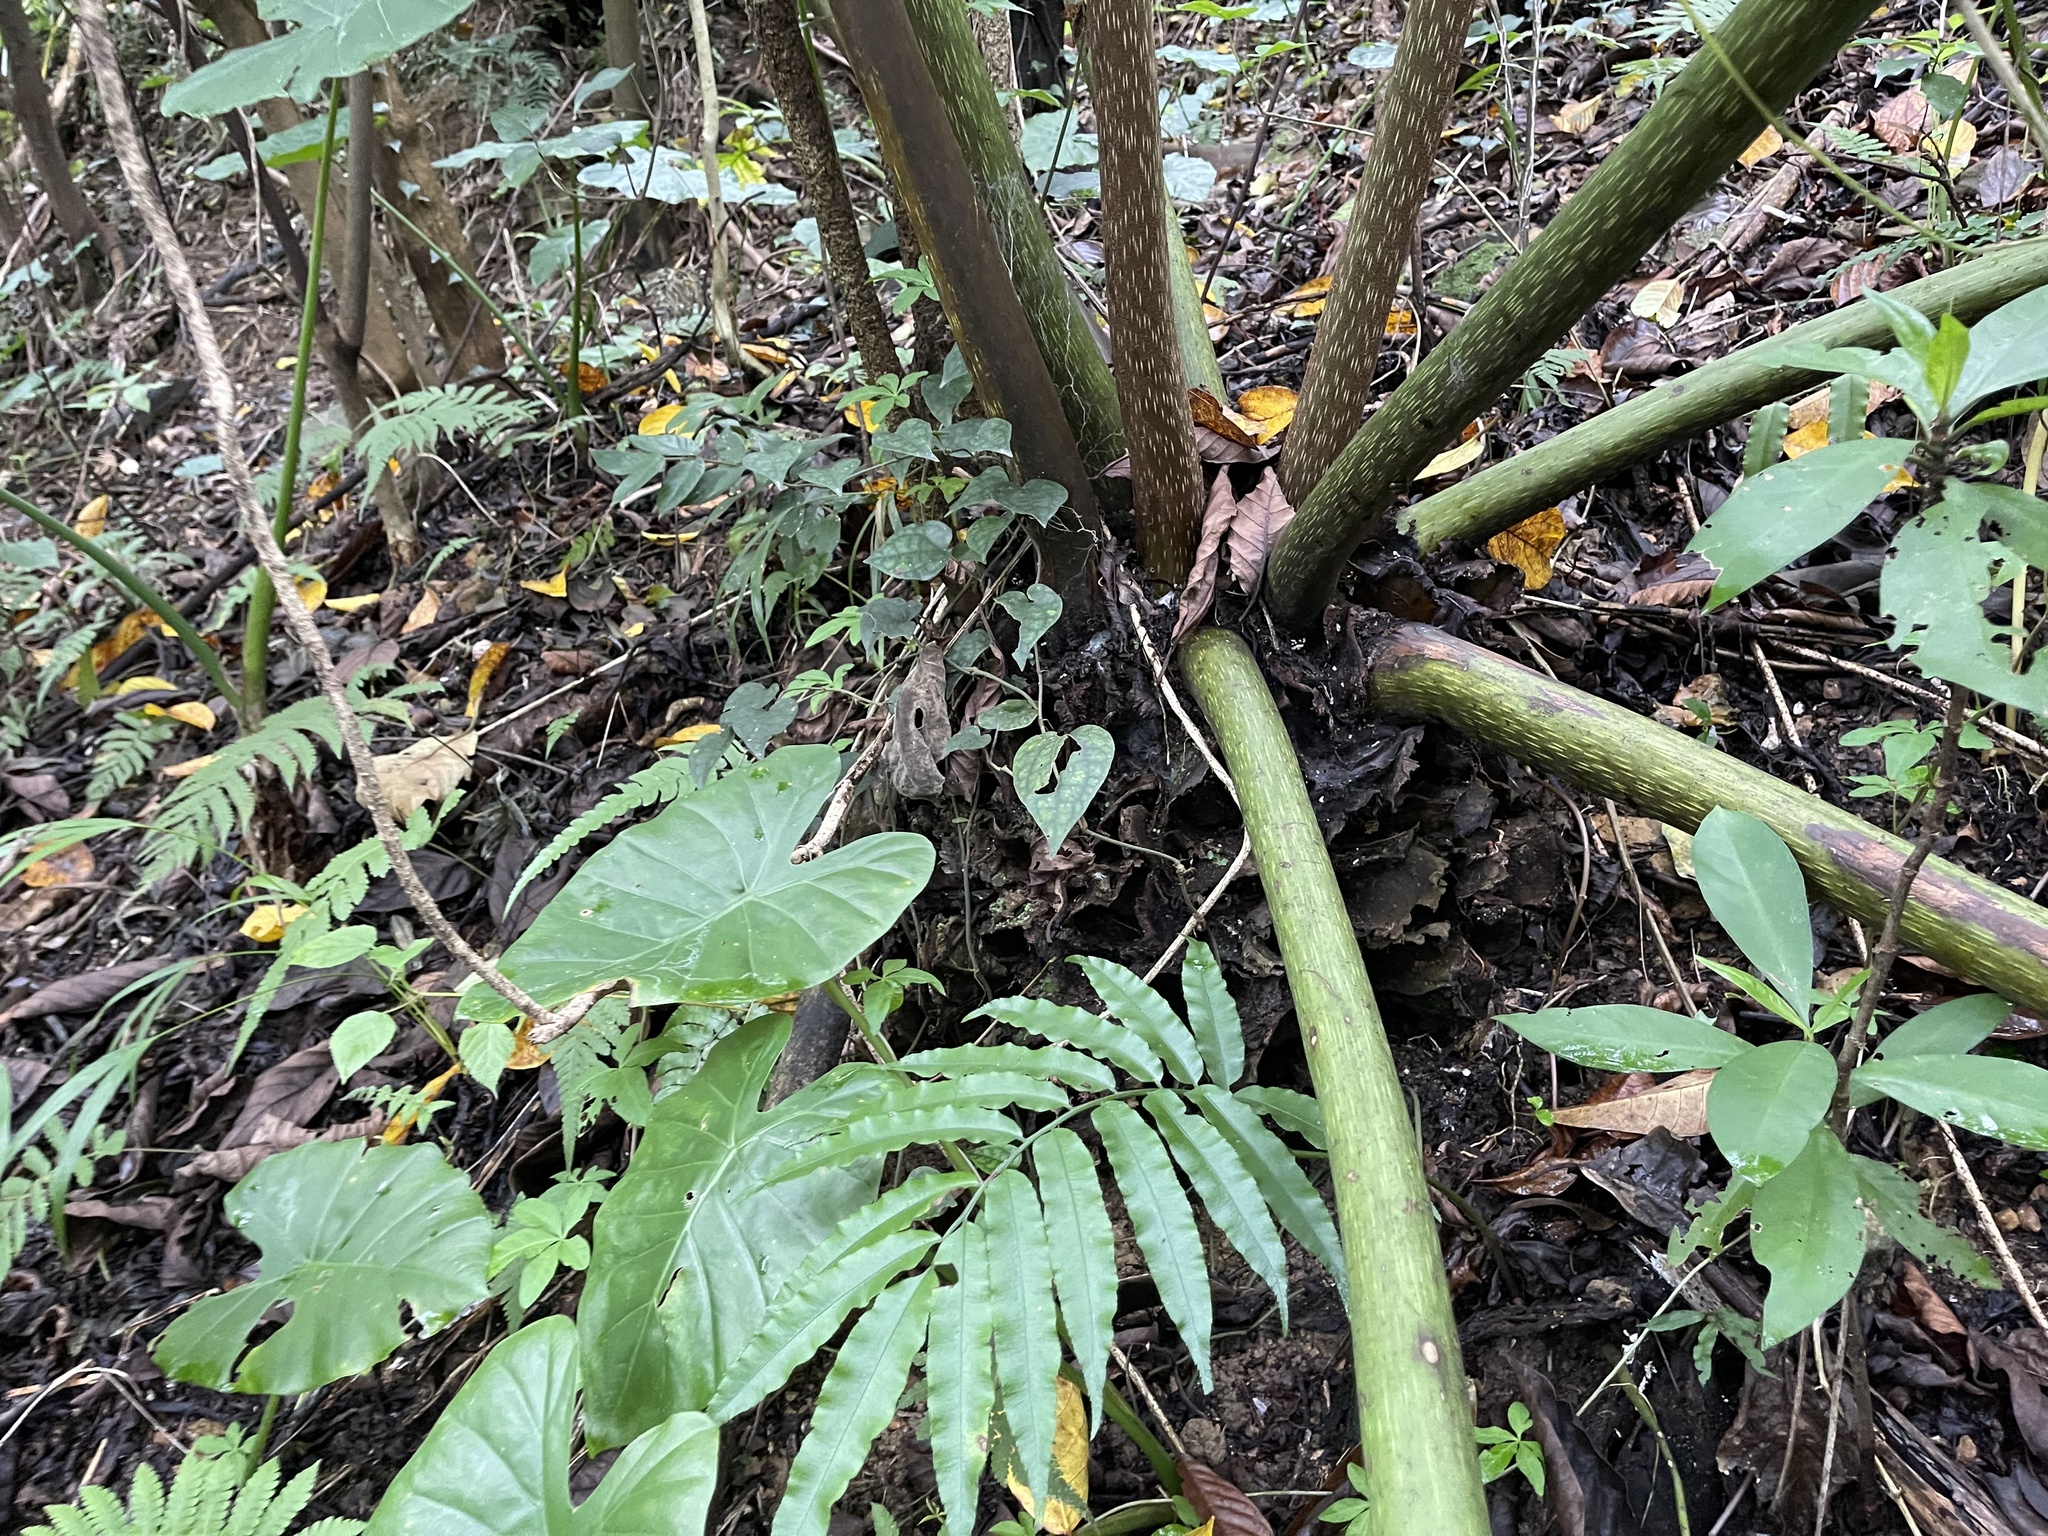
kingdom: Plantae
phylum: Tracheophyta
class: Polypodiopsida
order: Marattiales
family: Marattiaceae
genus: Angiopteris
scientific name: Angiopteris lygodiifolia
